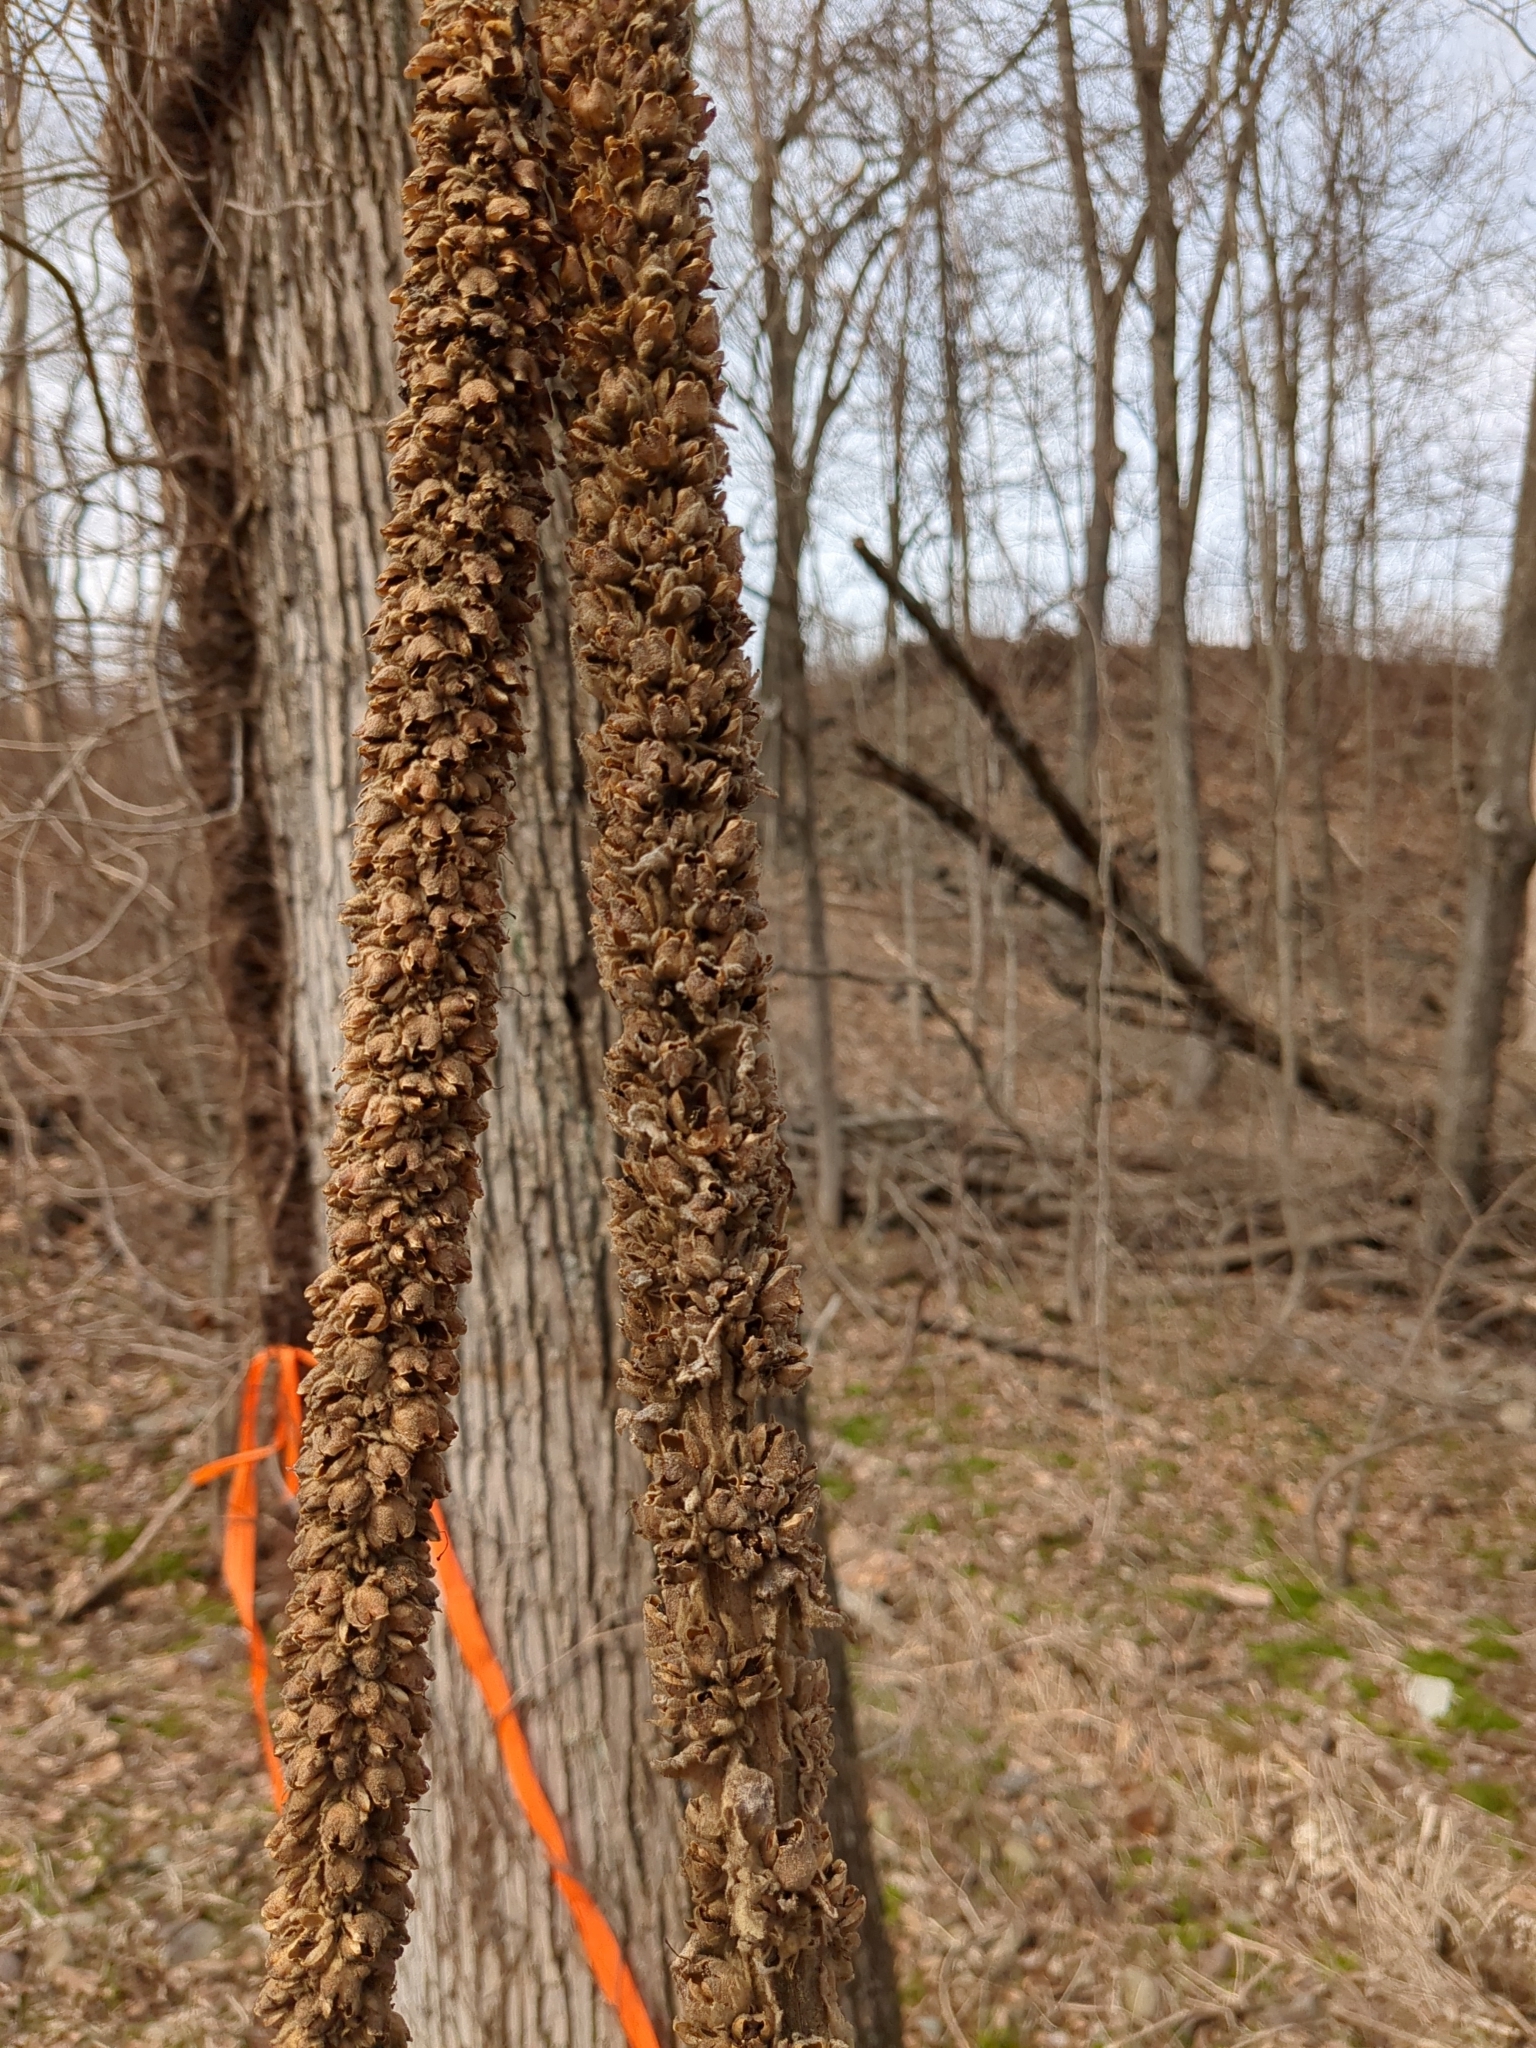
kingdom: Plantae
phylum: Tracheophyta
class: Magnoliopsida
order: Lamiales
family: Scrophulariaceae
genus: Verbascum
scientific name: Verbascum thapsus
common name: Common mullein
